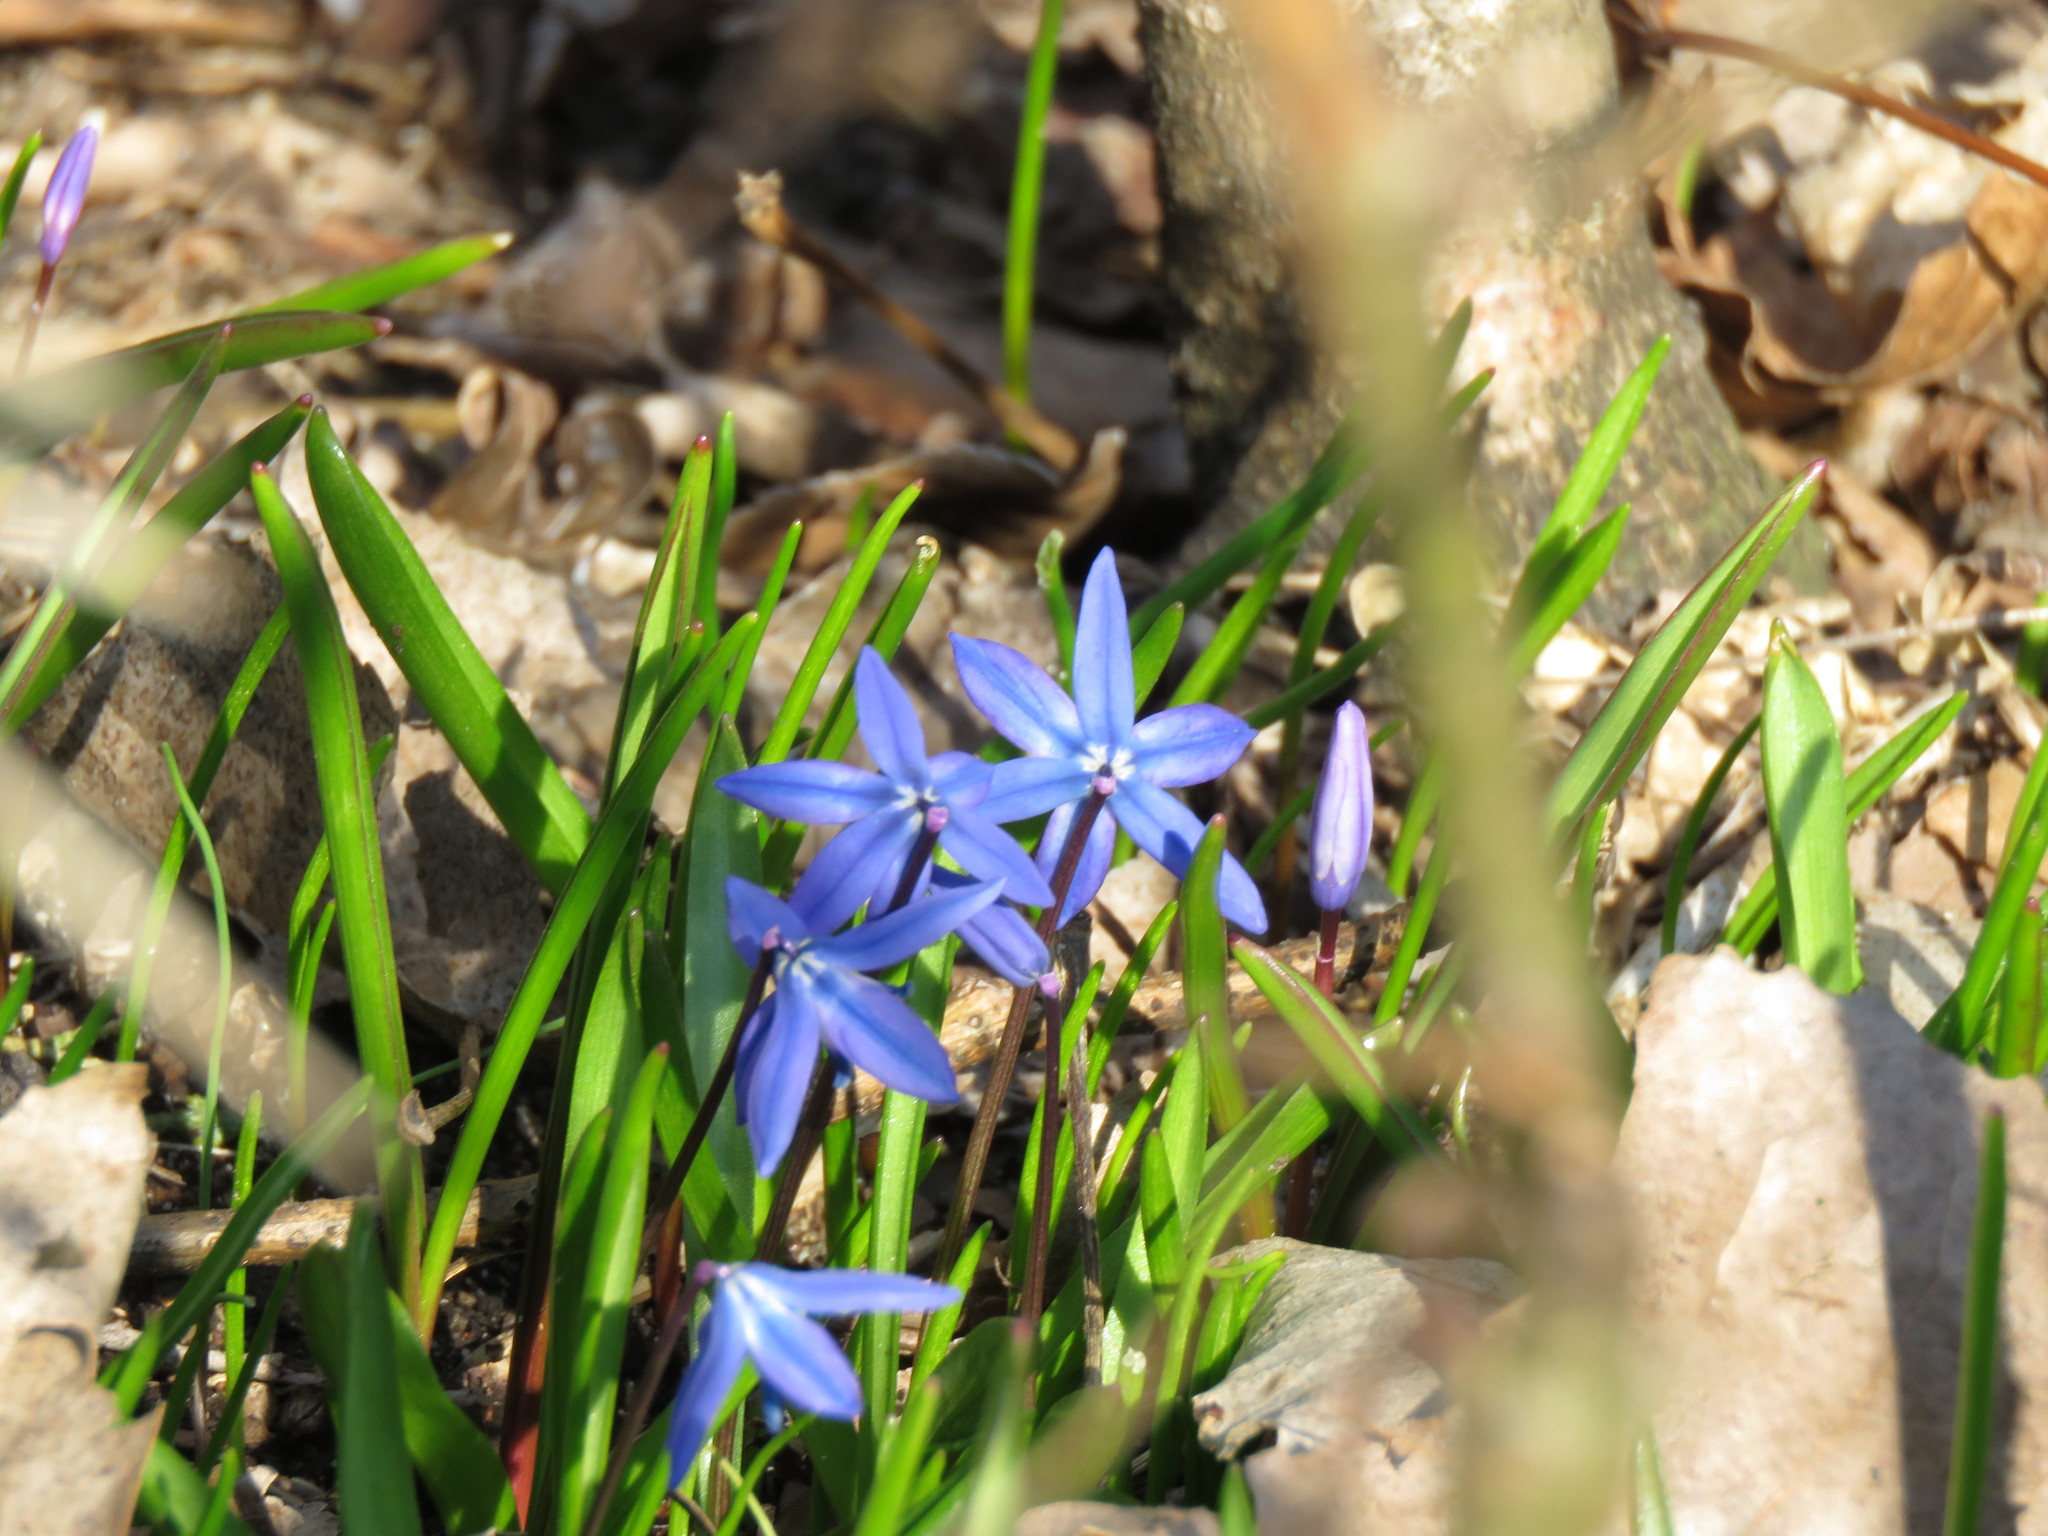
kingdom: Plantae
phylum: Tracheophyta
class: Liliopsida
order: Asparagales
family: Asparagaceae
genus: Scilla
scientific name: Scilla siberica
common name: Siberian squill
